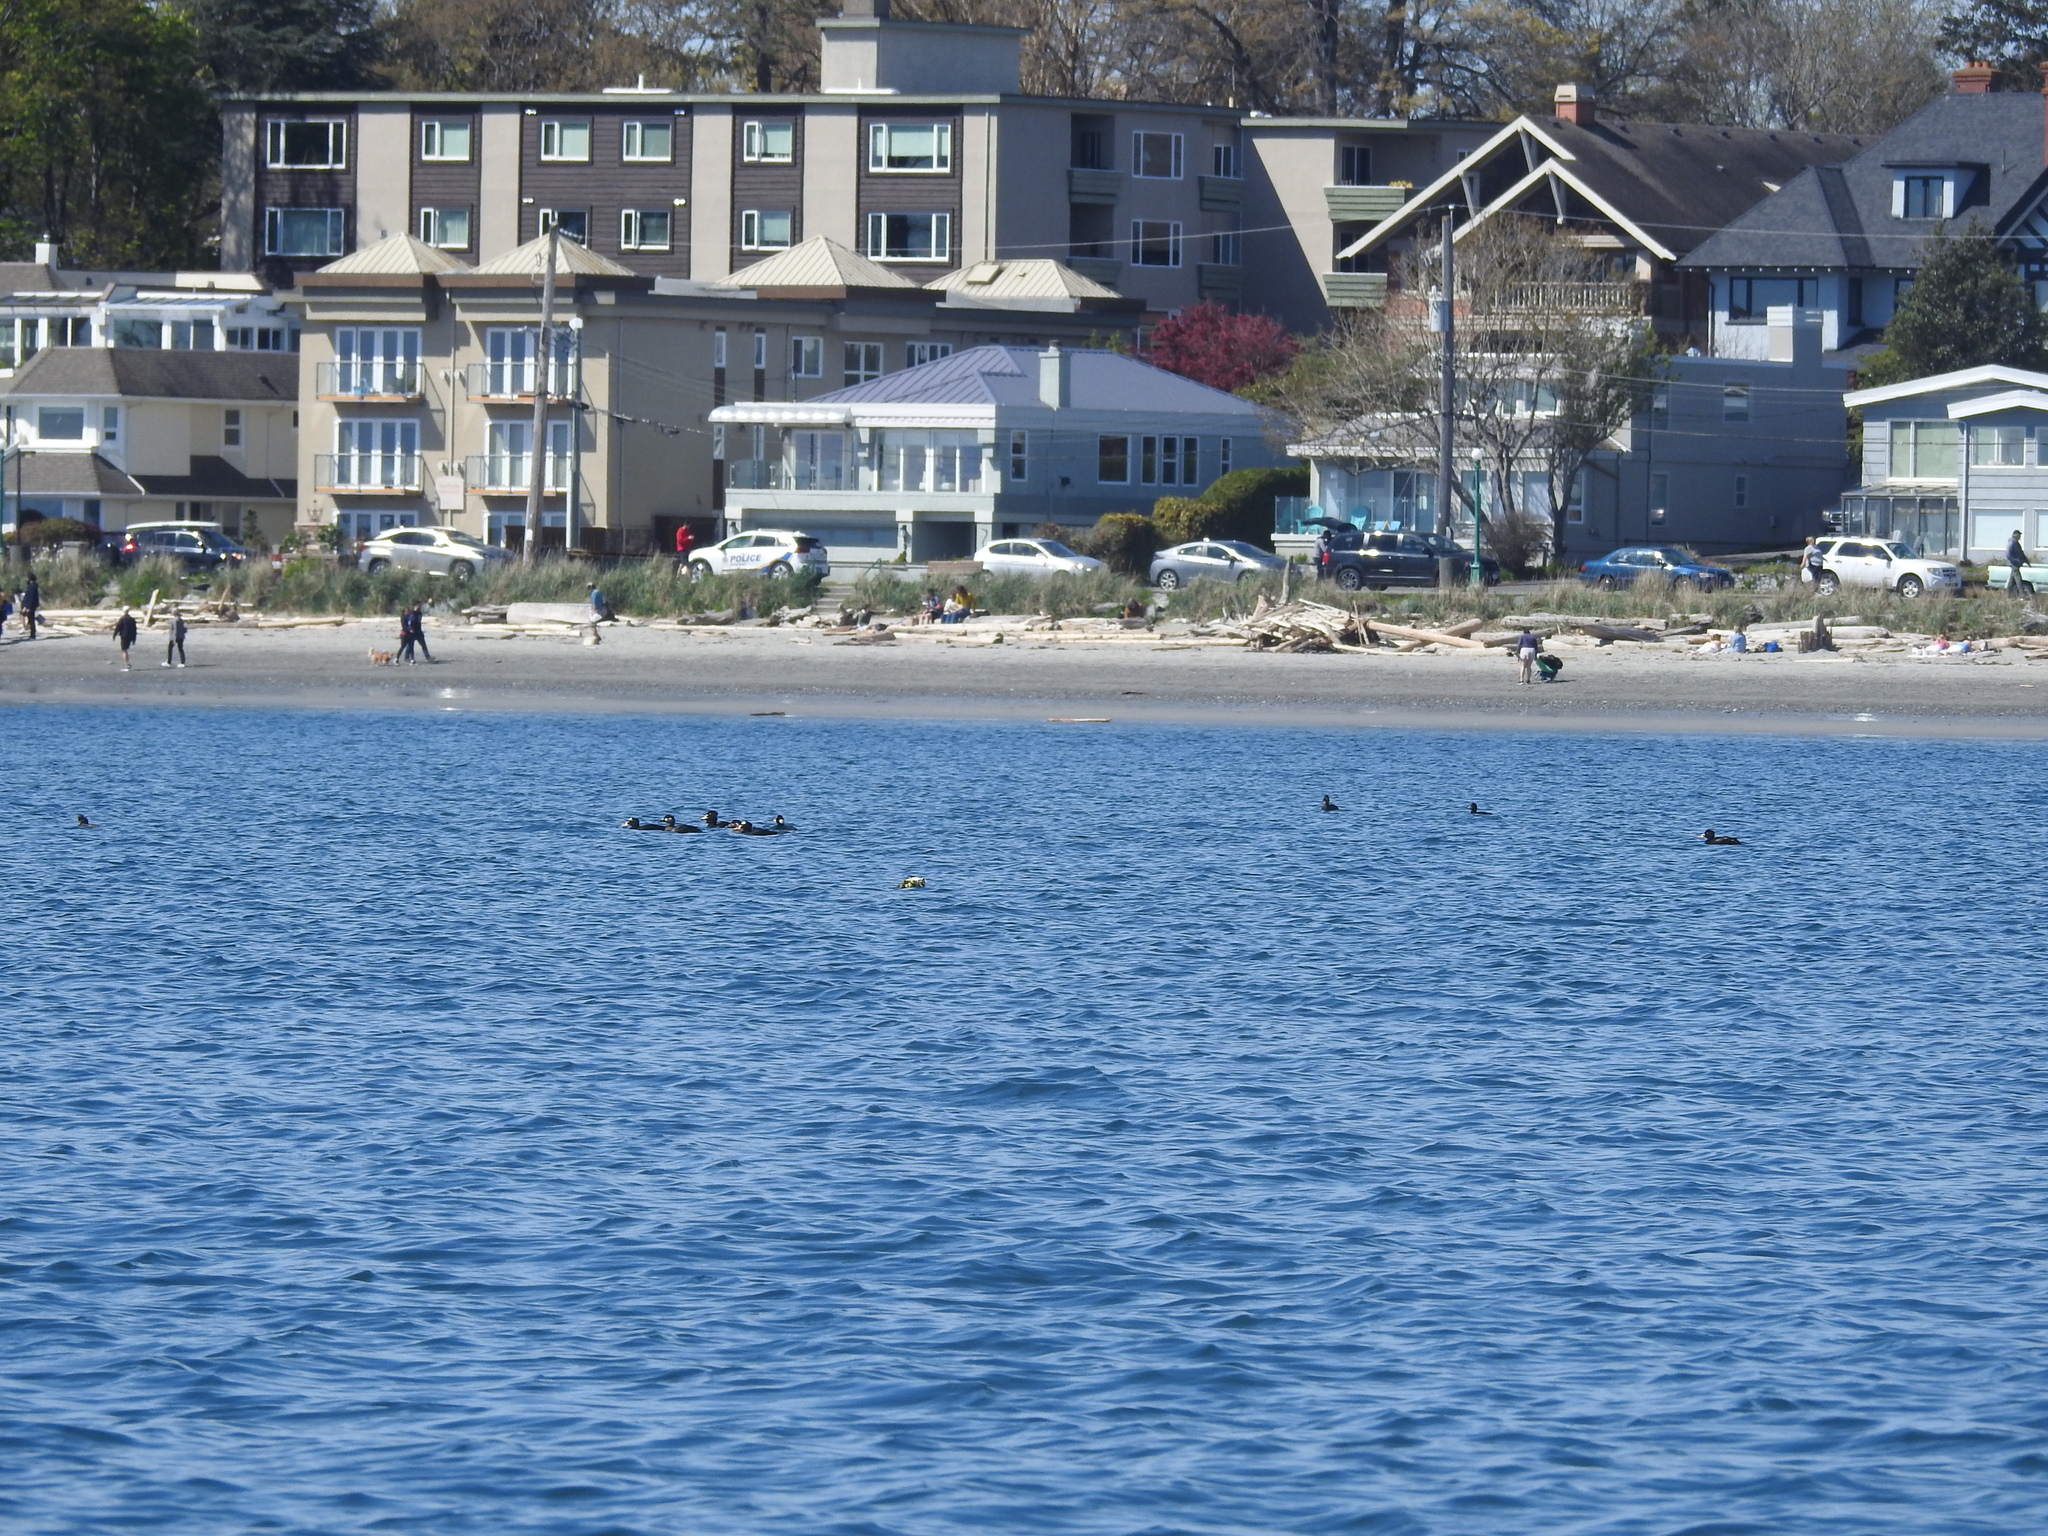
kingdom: Animalia
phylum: Chordata
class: Aves
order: Anseriformes
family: Anatidae
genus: Melanitta
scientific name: Melanitta perspicillata
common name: Surf scoter
